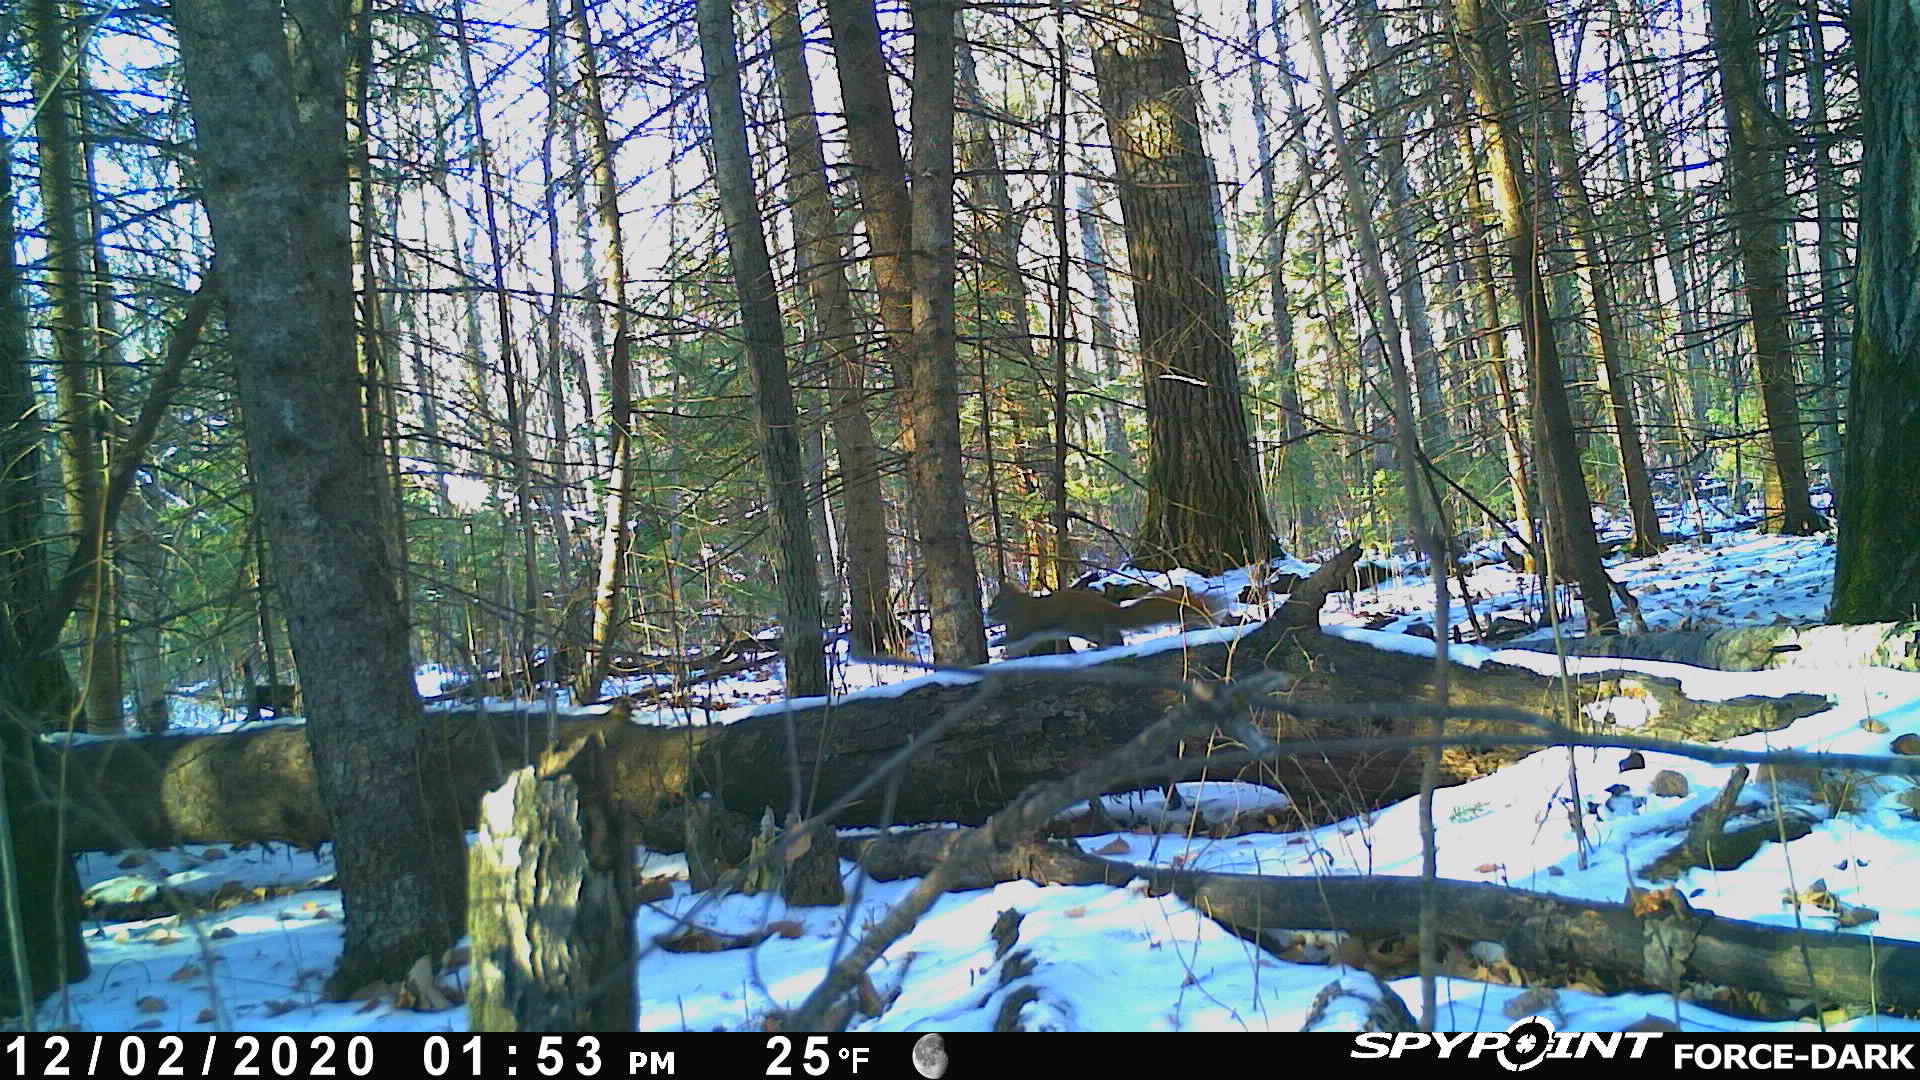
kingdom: Animalia
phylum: Chordata
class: Mammalia
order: Rodentia
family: Sciuridae
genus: Tamiasciurus
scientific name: Tamiasciurus hudsonicus
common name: Red squirrel
